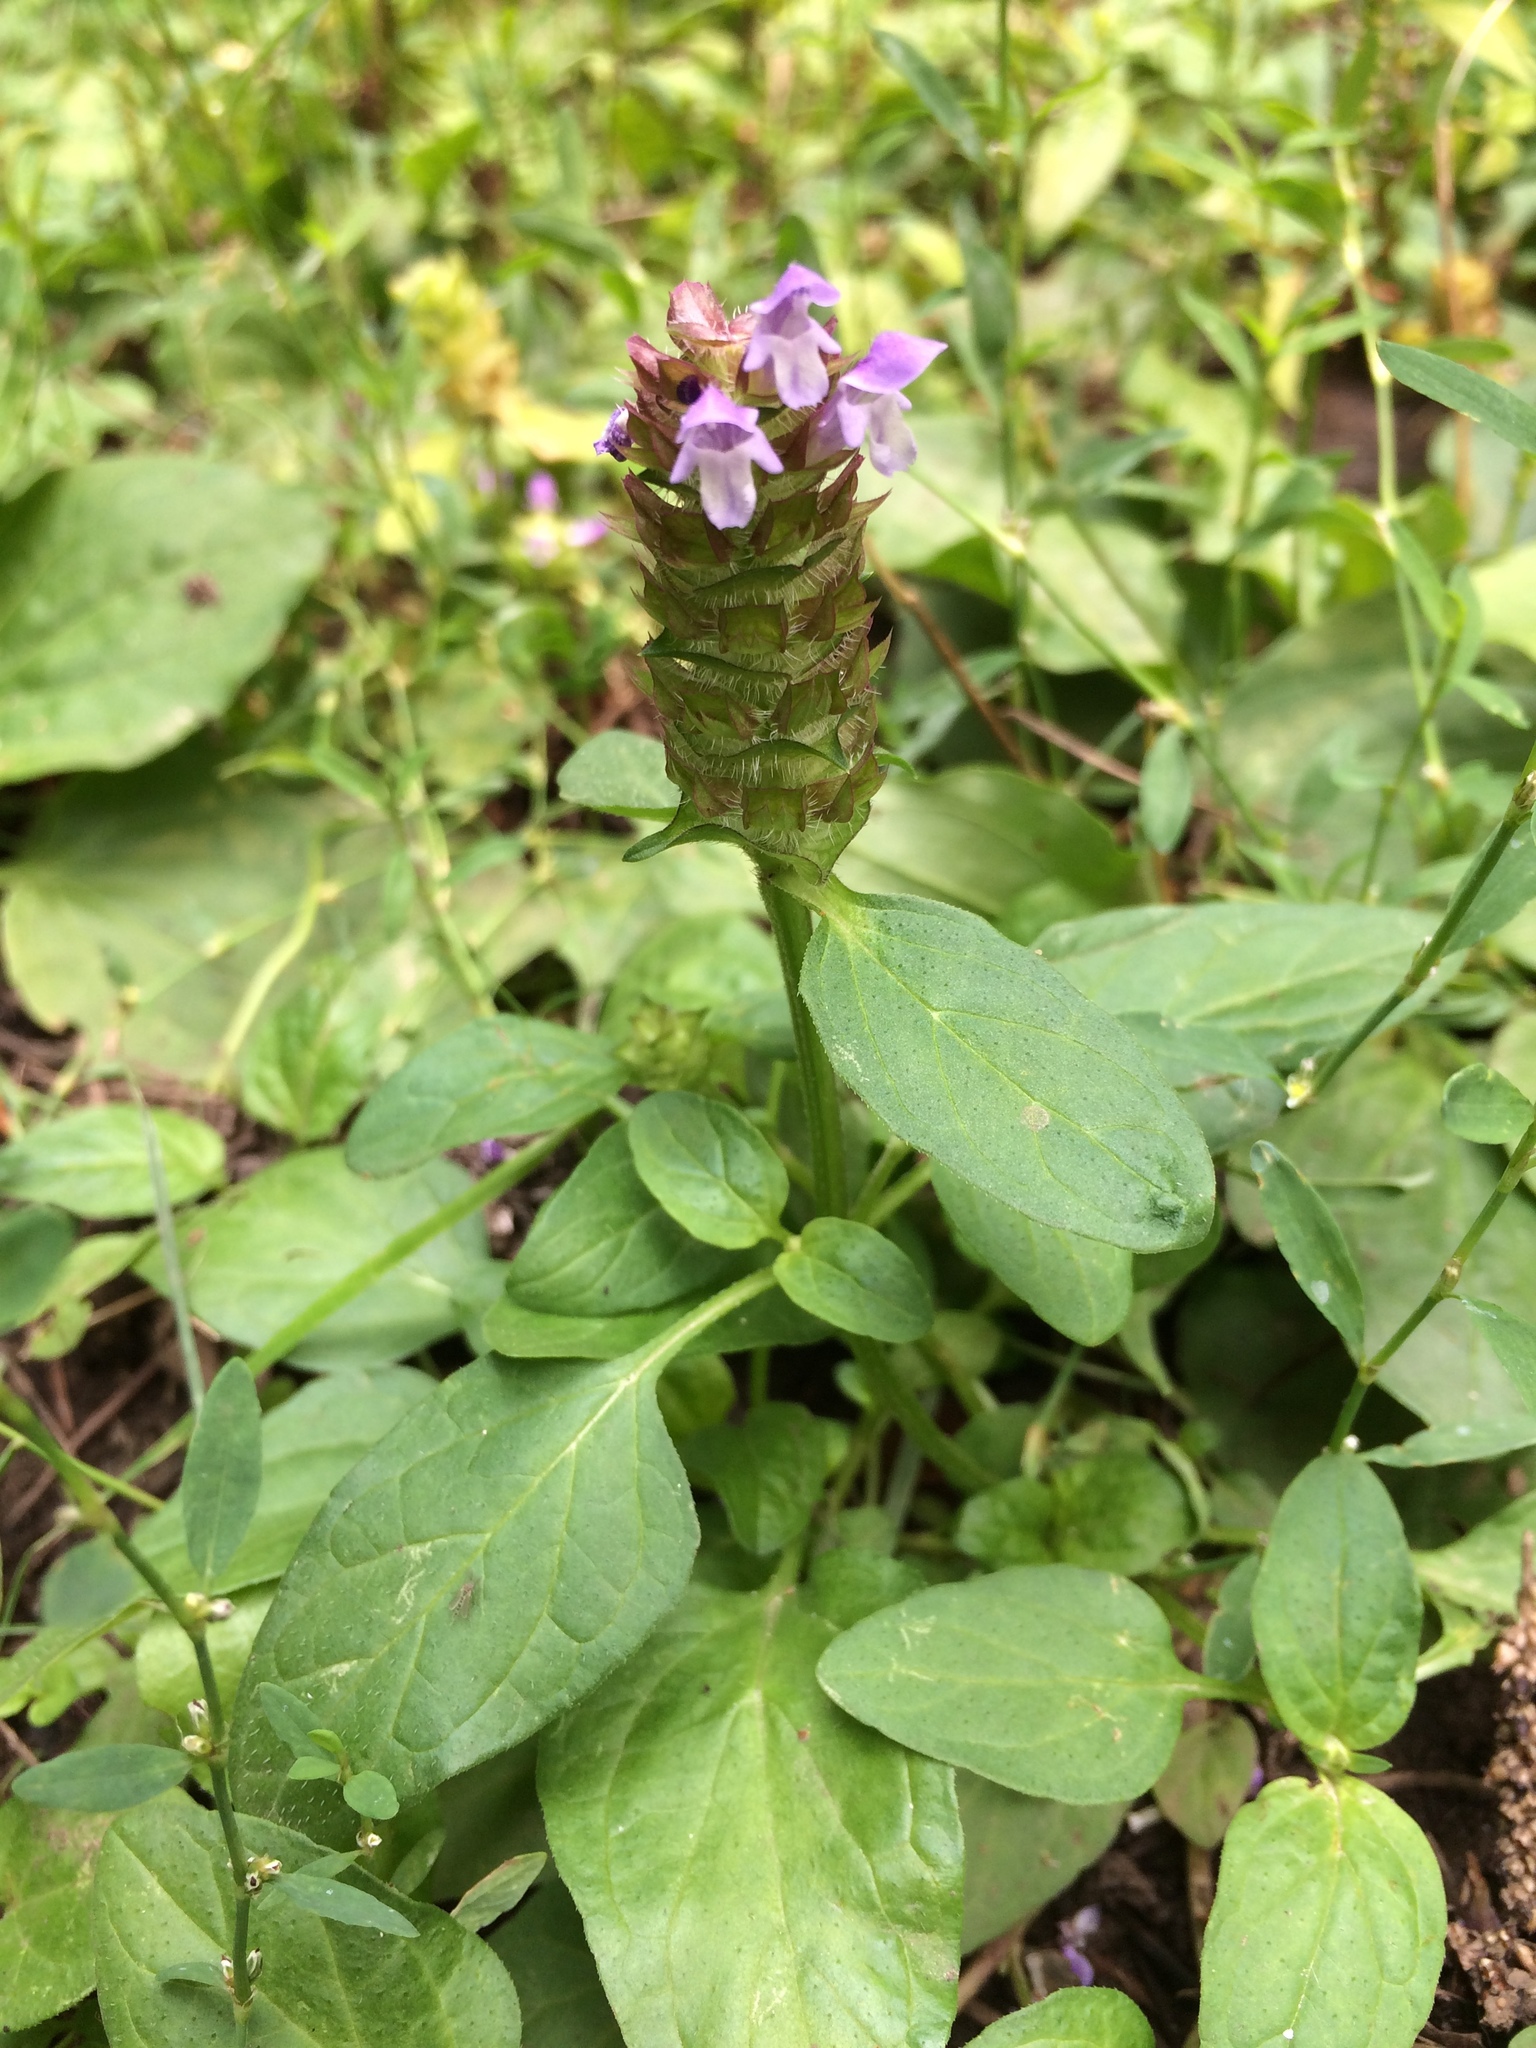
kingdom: Plantae
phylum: Tracheophyta
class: Magnoliopsida
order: Lamiales
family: Lamiaceae
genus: Prunella
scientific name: Prunella vulgaris
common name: Heal-all
